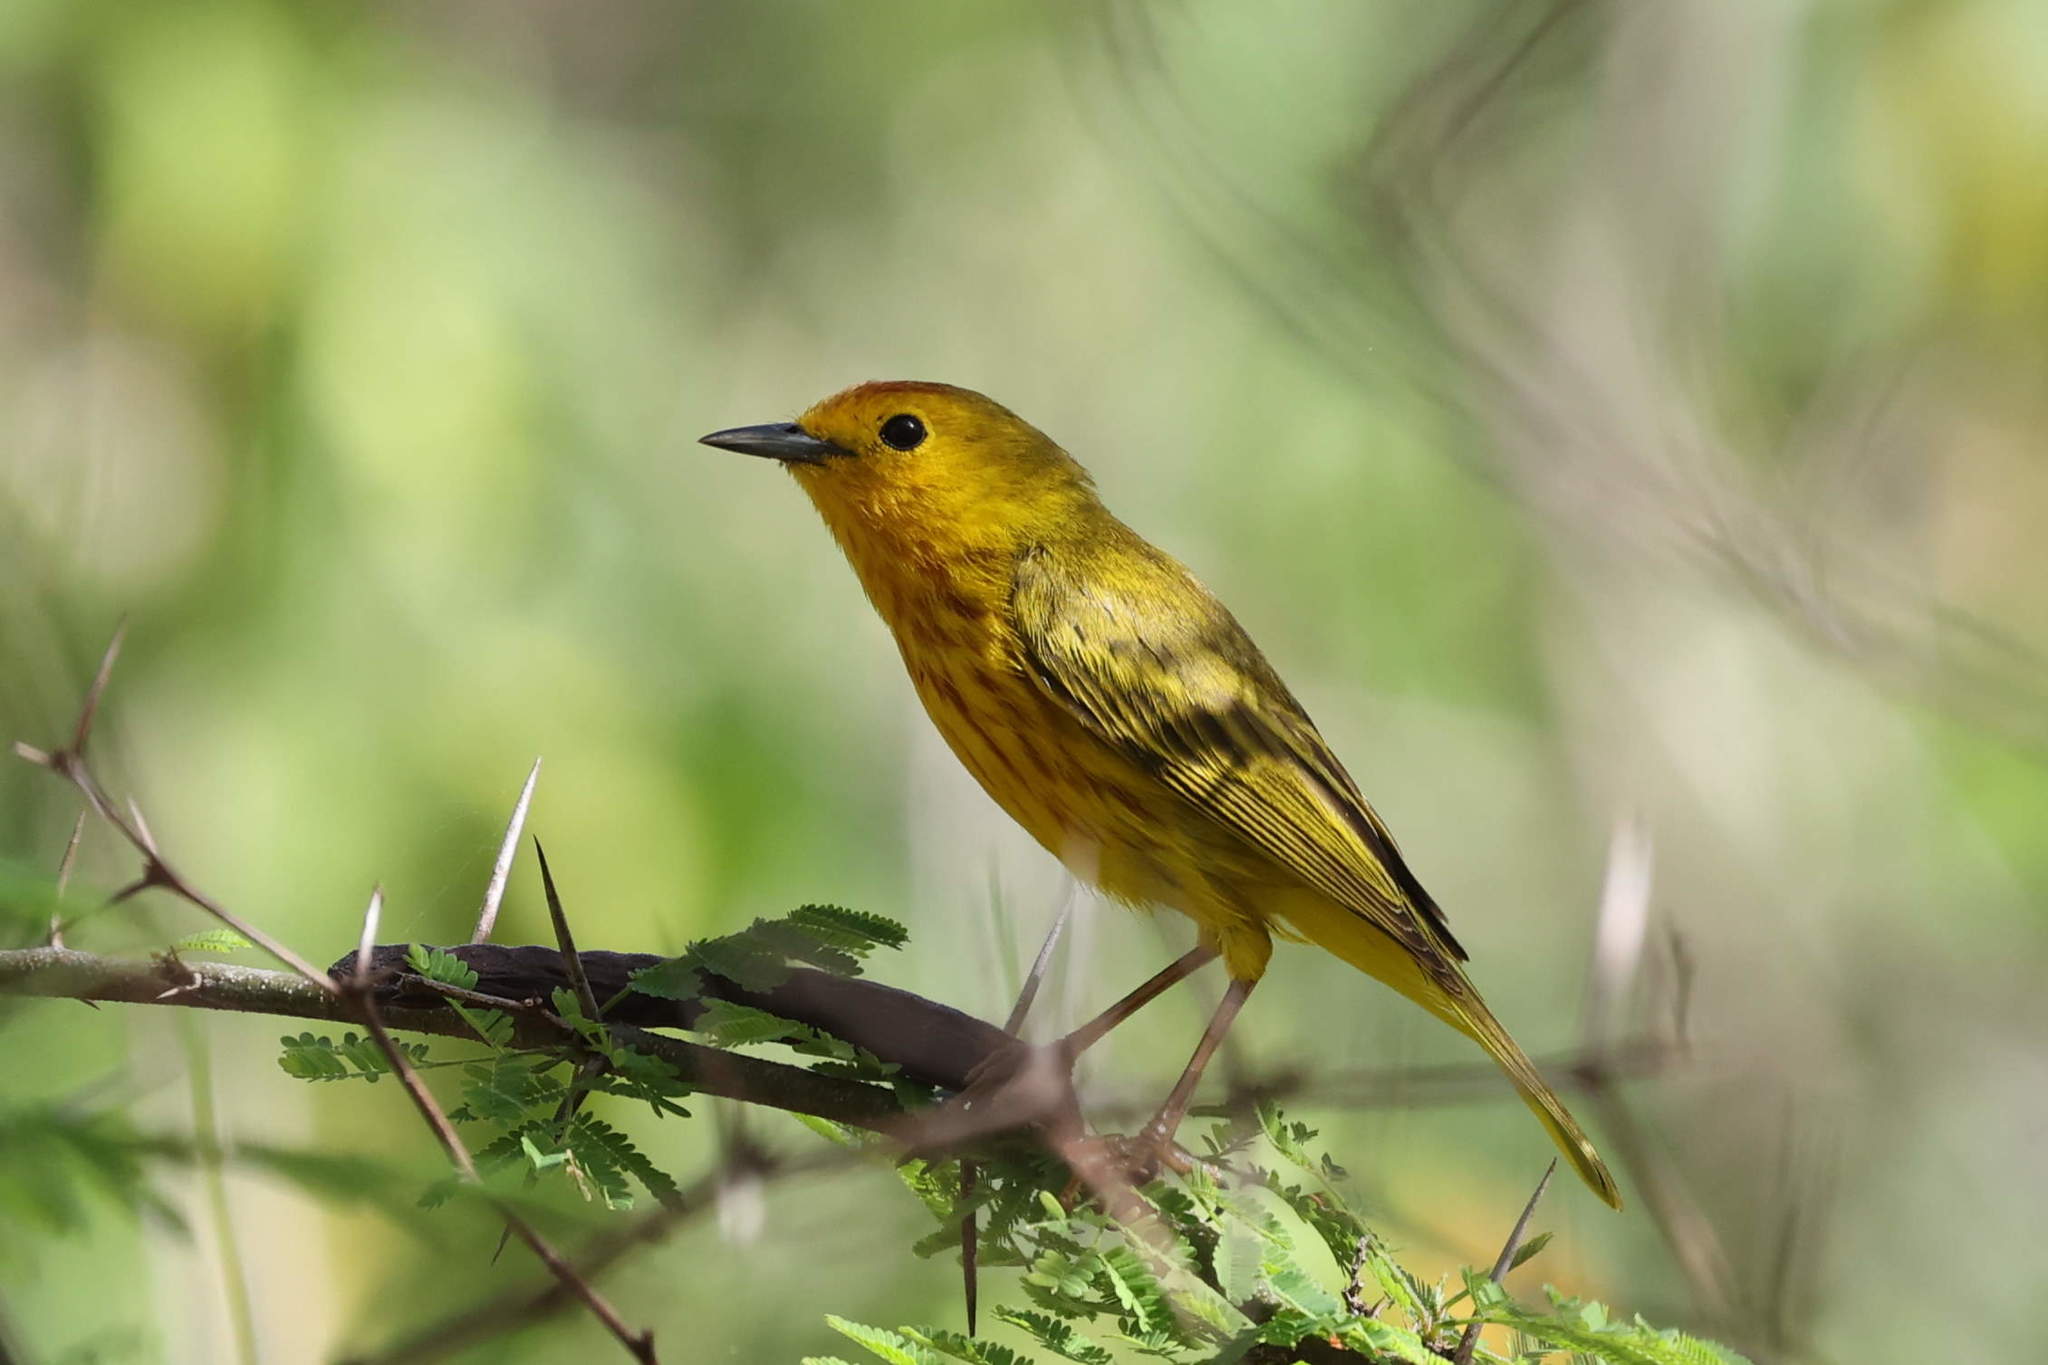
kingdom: Animalia
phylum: Chordata
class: Aves
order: Passeriformes
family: Parulidae
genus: Setophaga
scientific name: Setophaga petechia
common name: Yellow warbler
